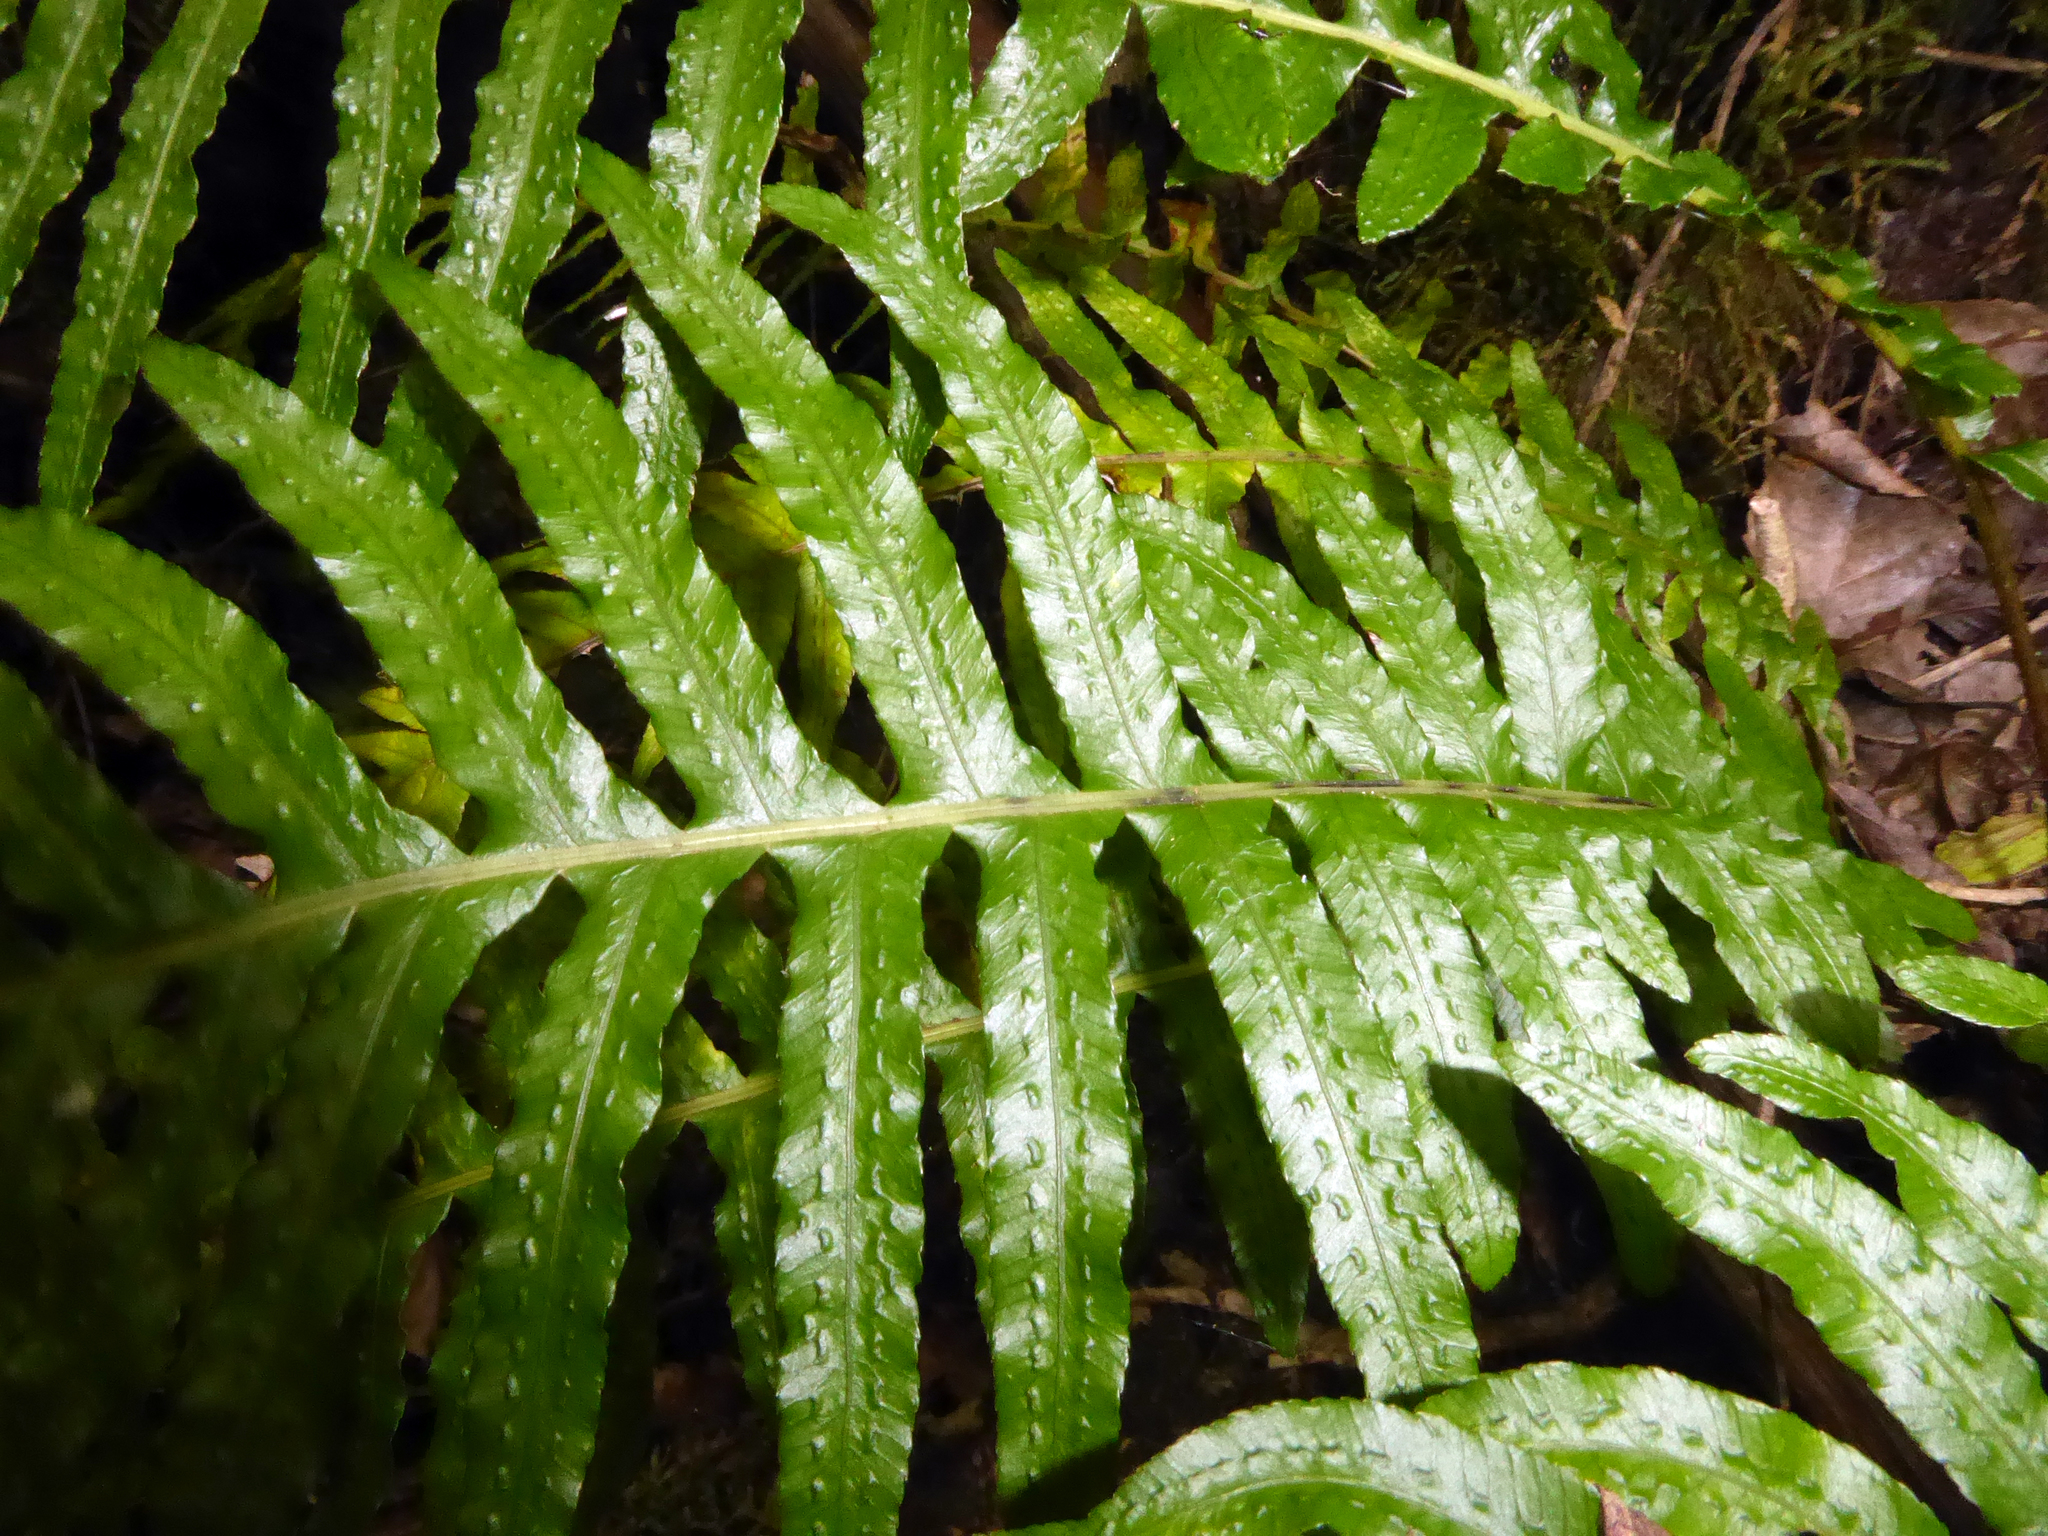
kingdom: Plantae
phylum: Tracheophyta
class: Polypodiopsida
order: Polypodiales
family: Blechnaceae
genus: Doodia
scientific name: Doodia media
